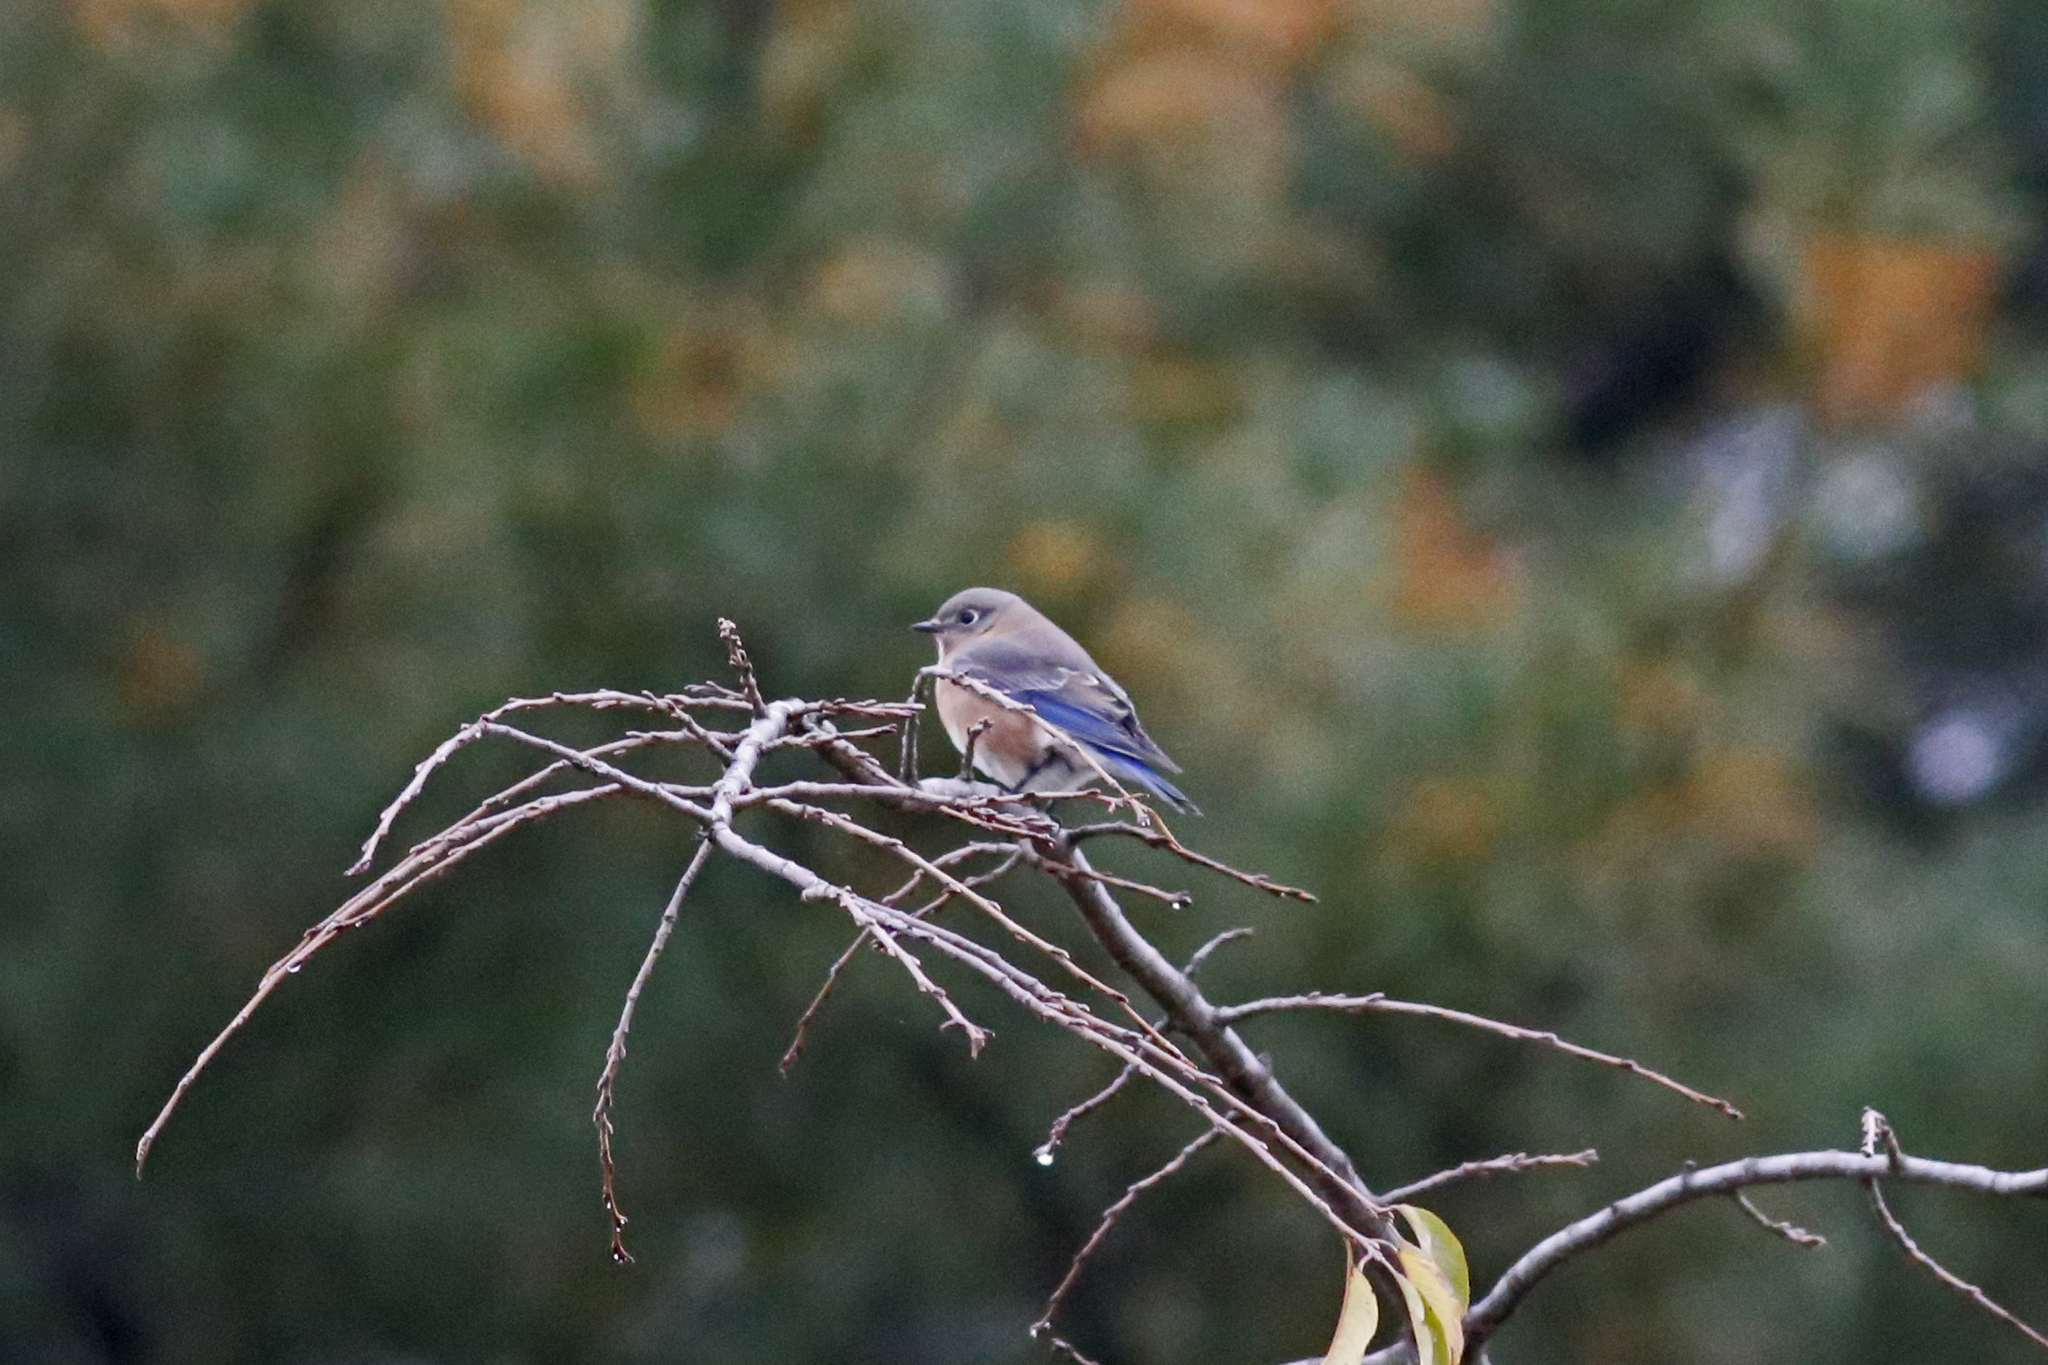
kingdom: Animalia
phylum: Chordata
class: Aves
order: Passeriformes
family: Turdidae
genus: Sialia
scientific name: Sialia sialis
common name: Eastern bluebird
